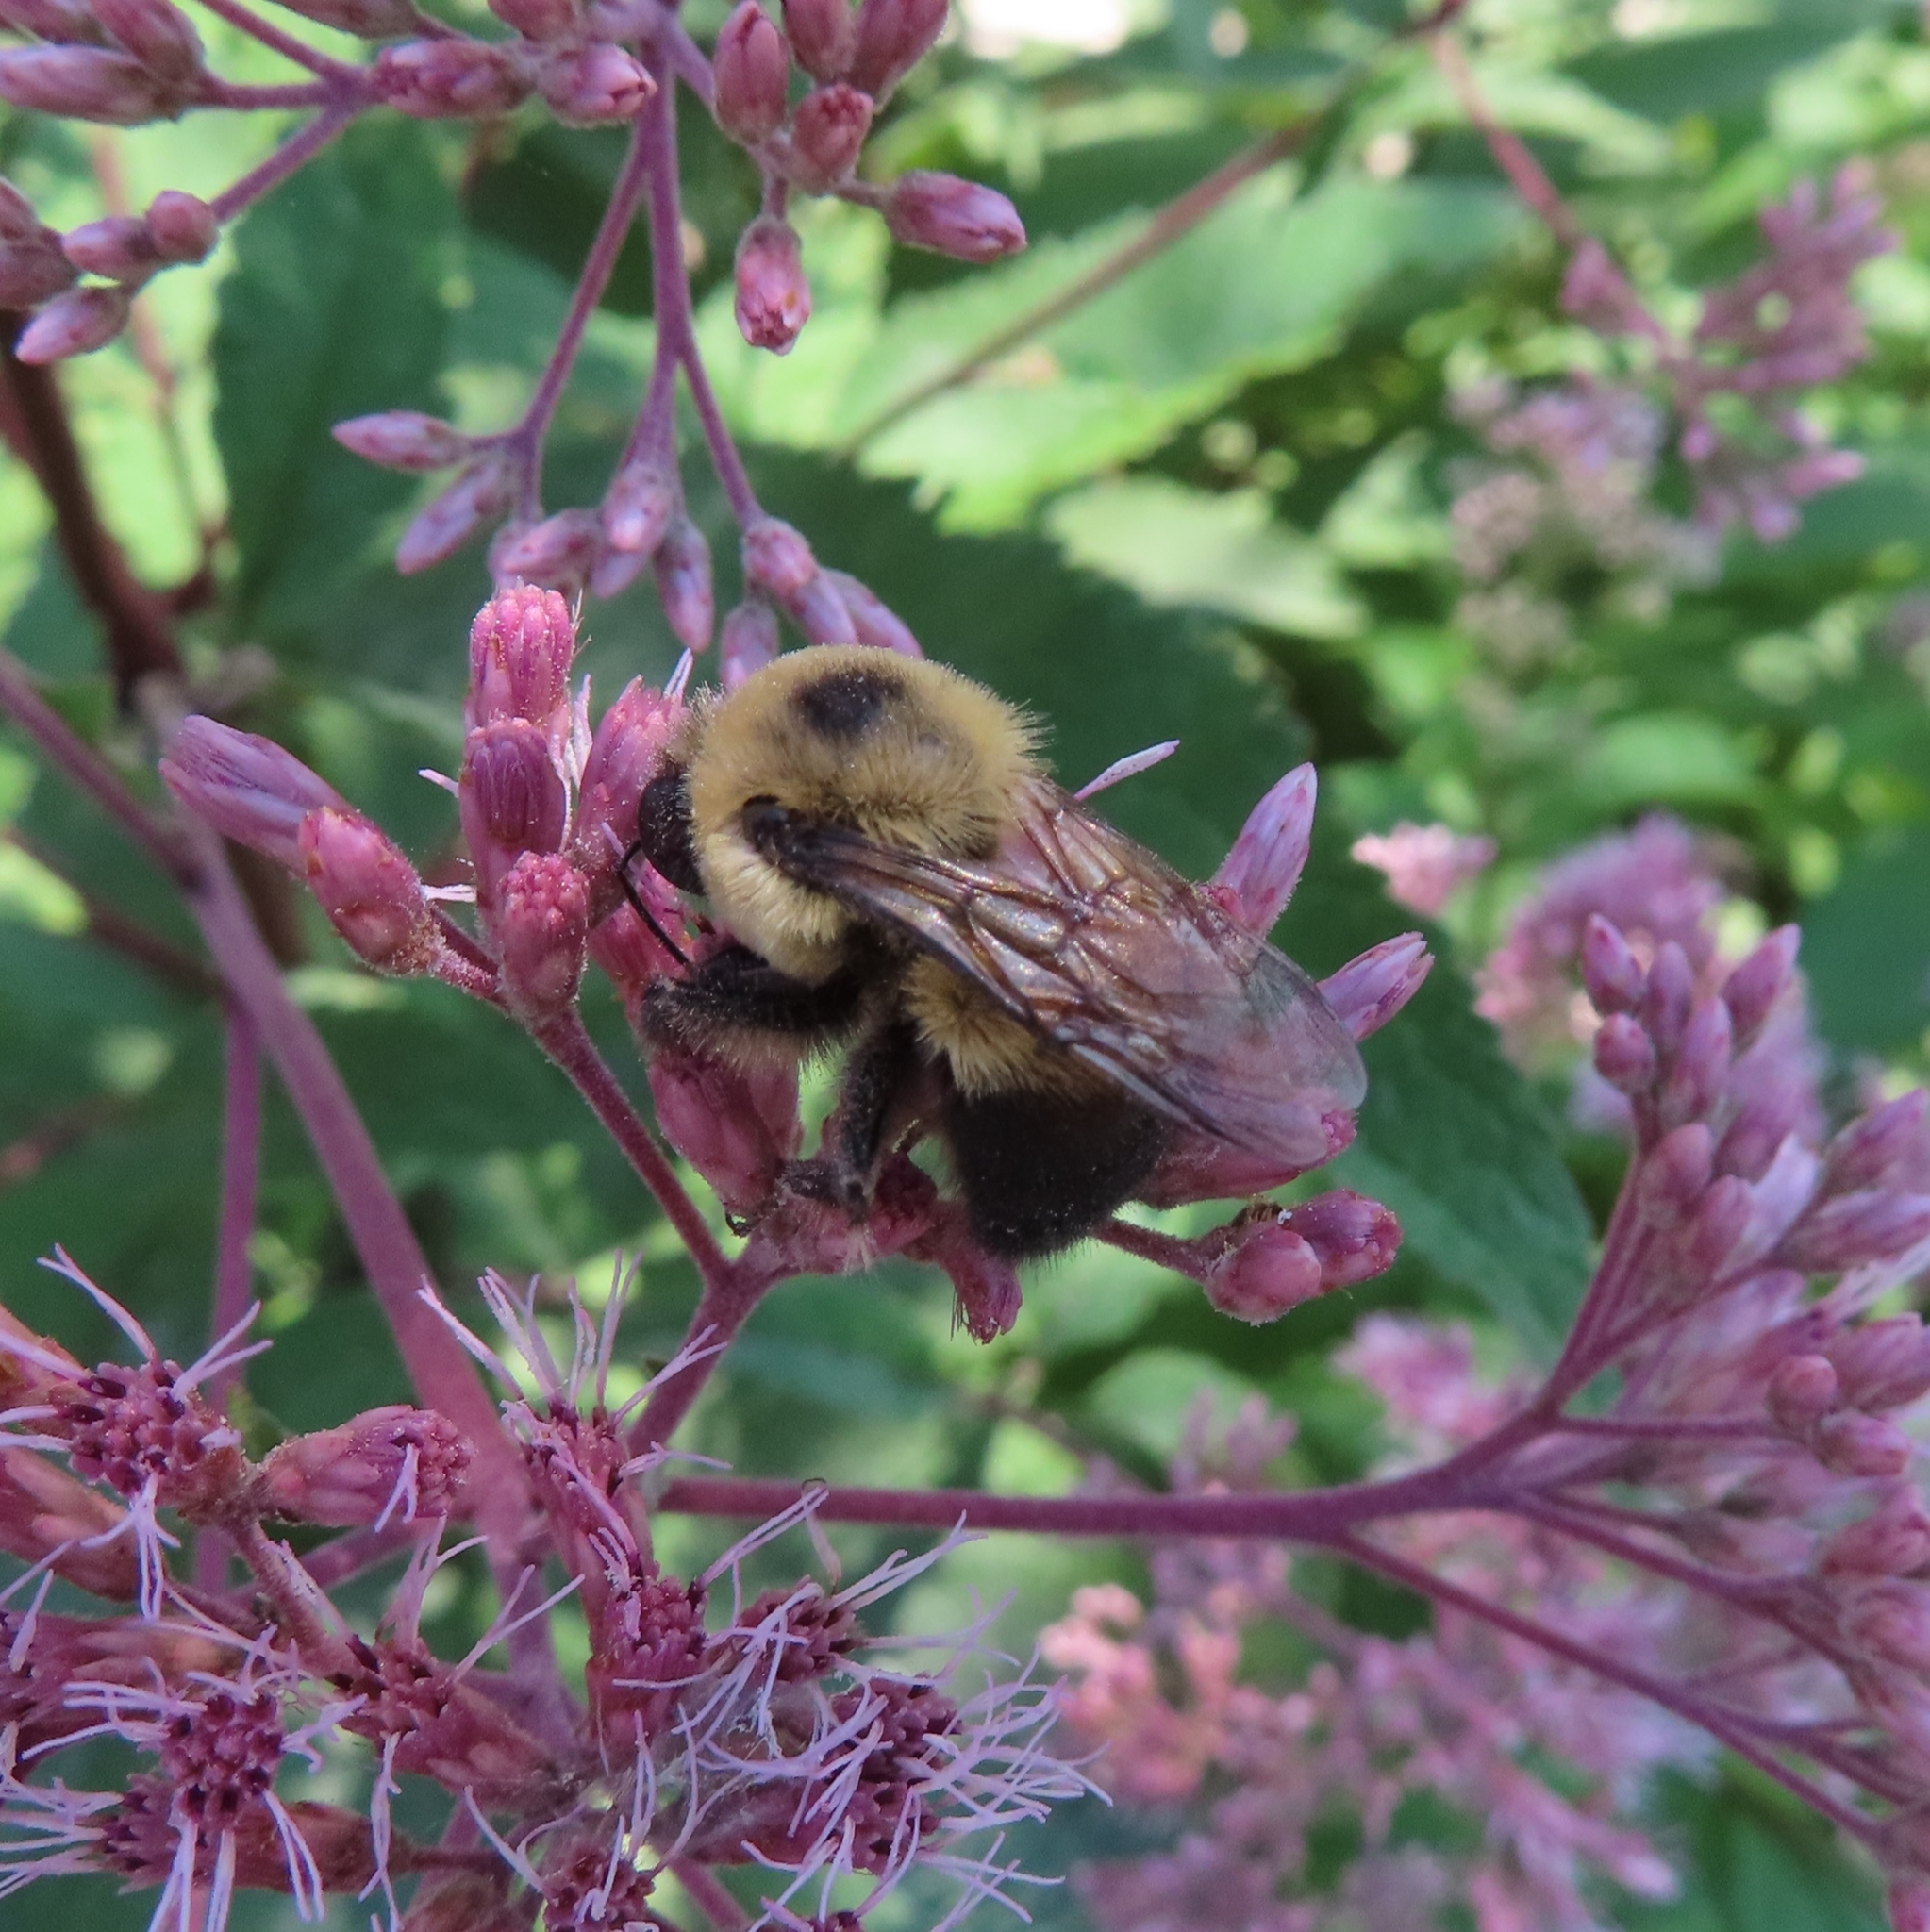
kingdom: Animalia
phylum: Arthropoda
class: Insecta
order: Hymenoptera
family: Apidae
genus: Bombus
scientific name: Bombus griseocollis
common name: Brown-belted bumble bee
